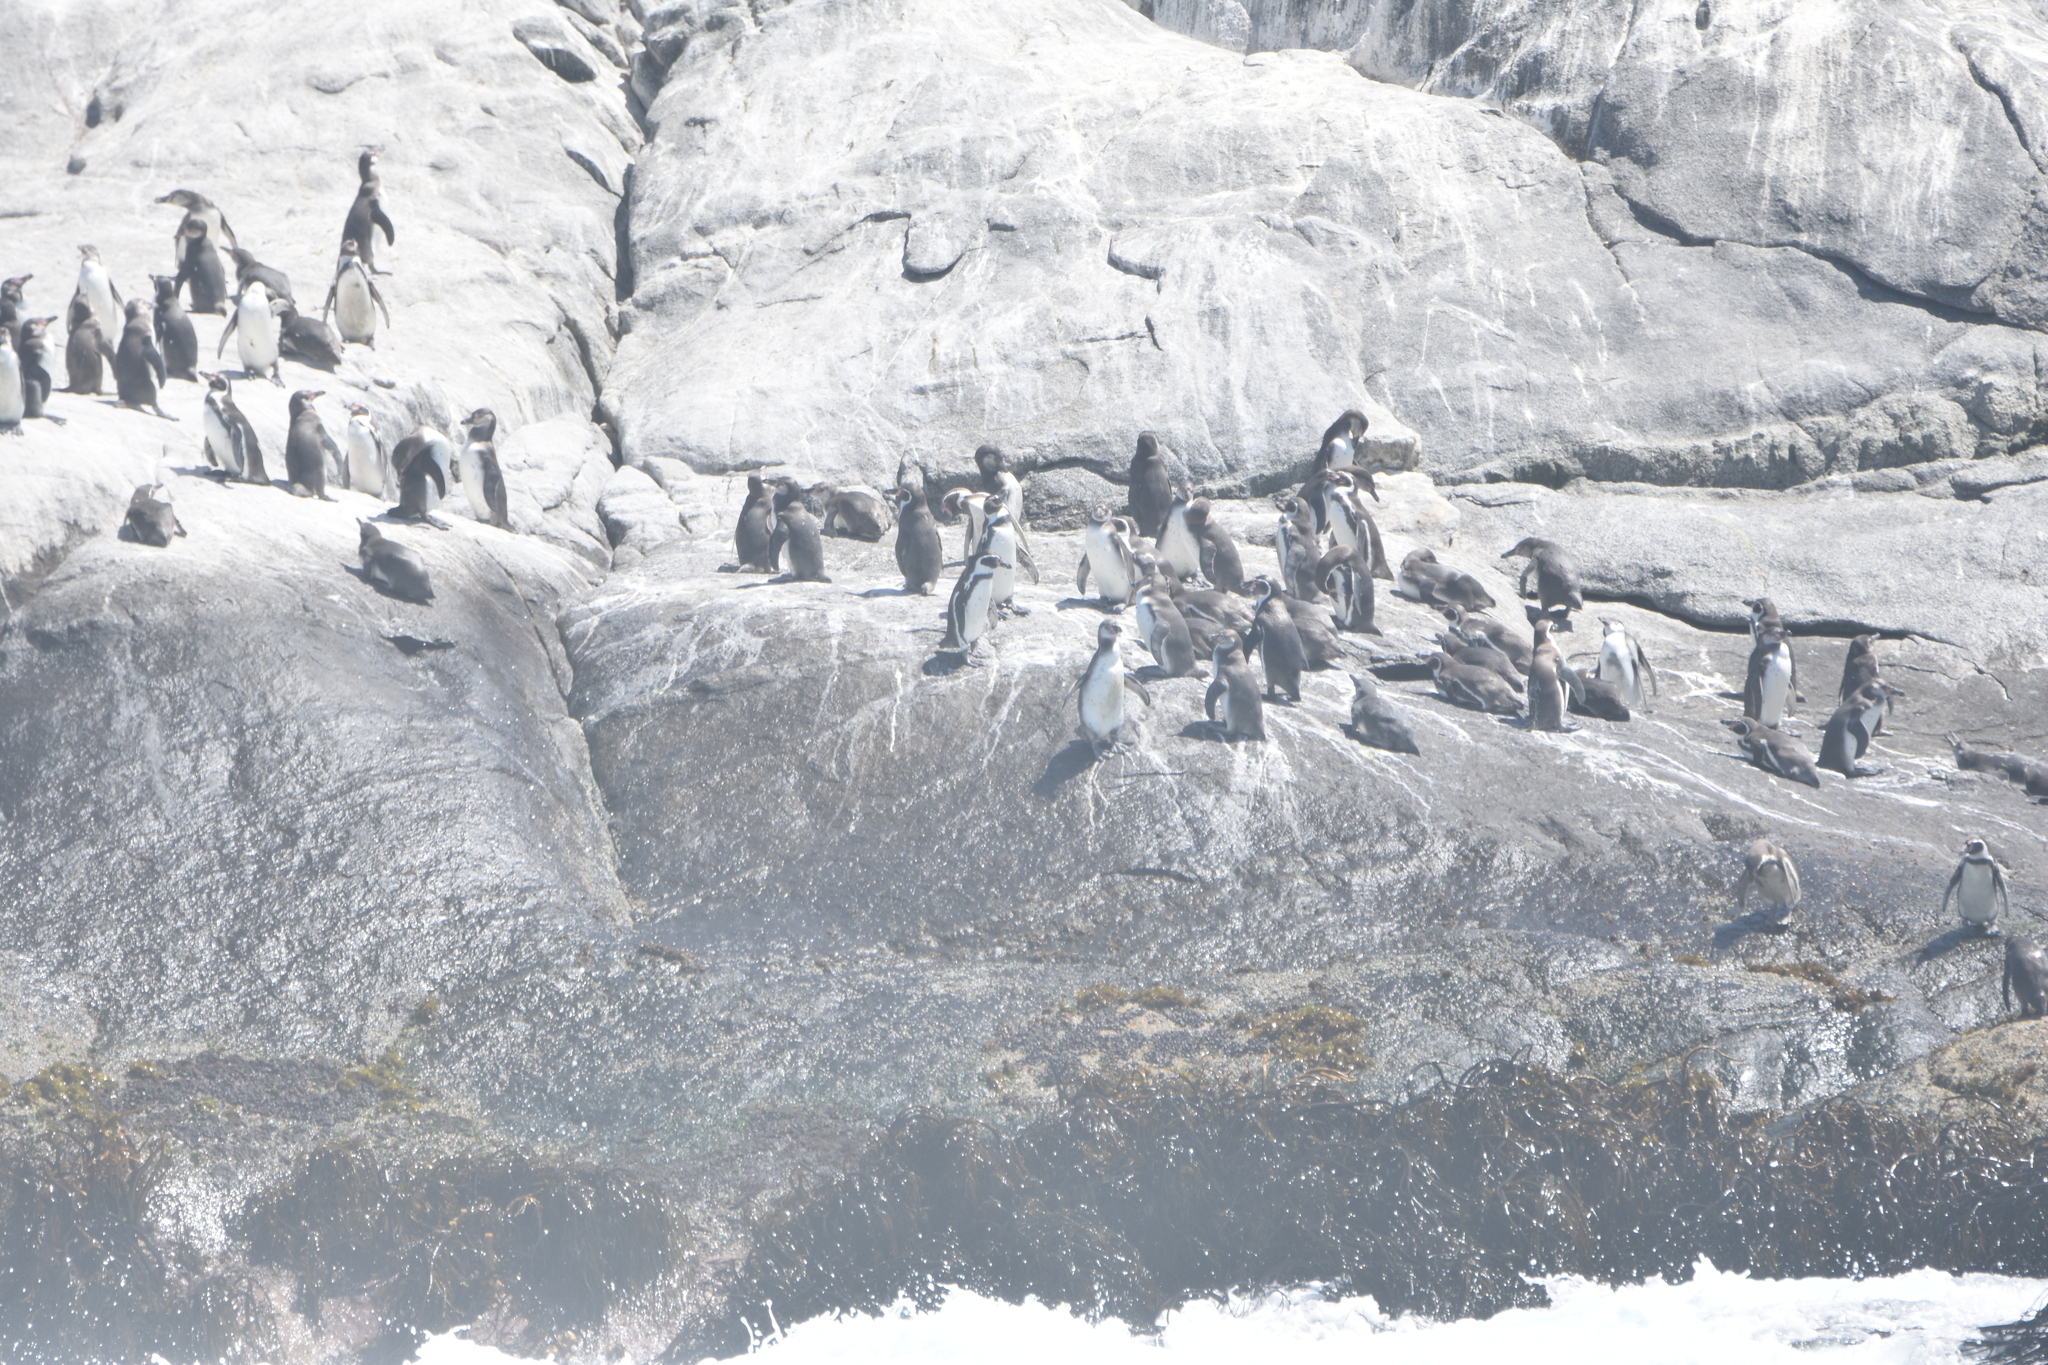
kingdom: Animalia
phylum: Chordata
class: Aves
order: Sphenisciformes
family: Spheniscidae
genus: Spheniscus
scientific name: Spheniscus humboldti
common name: Humboldt penguin
